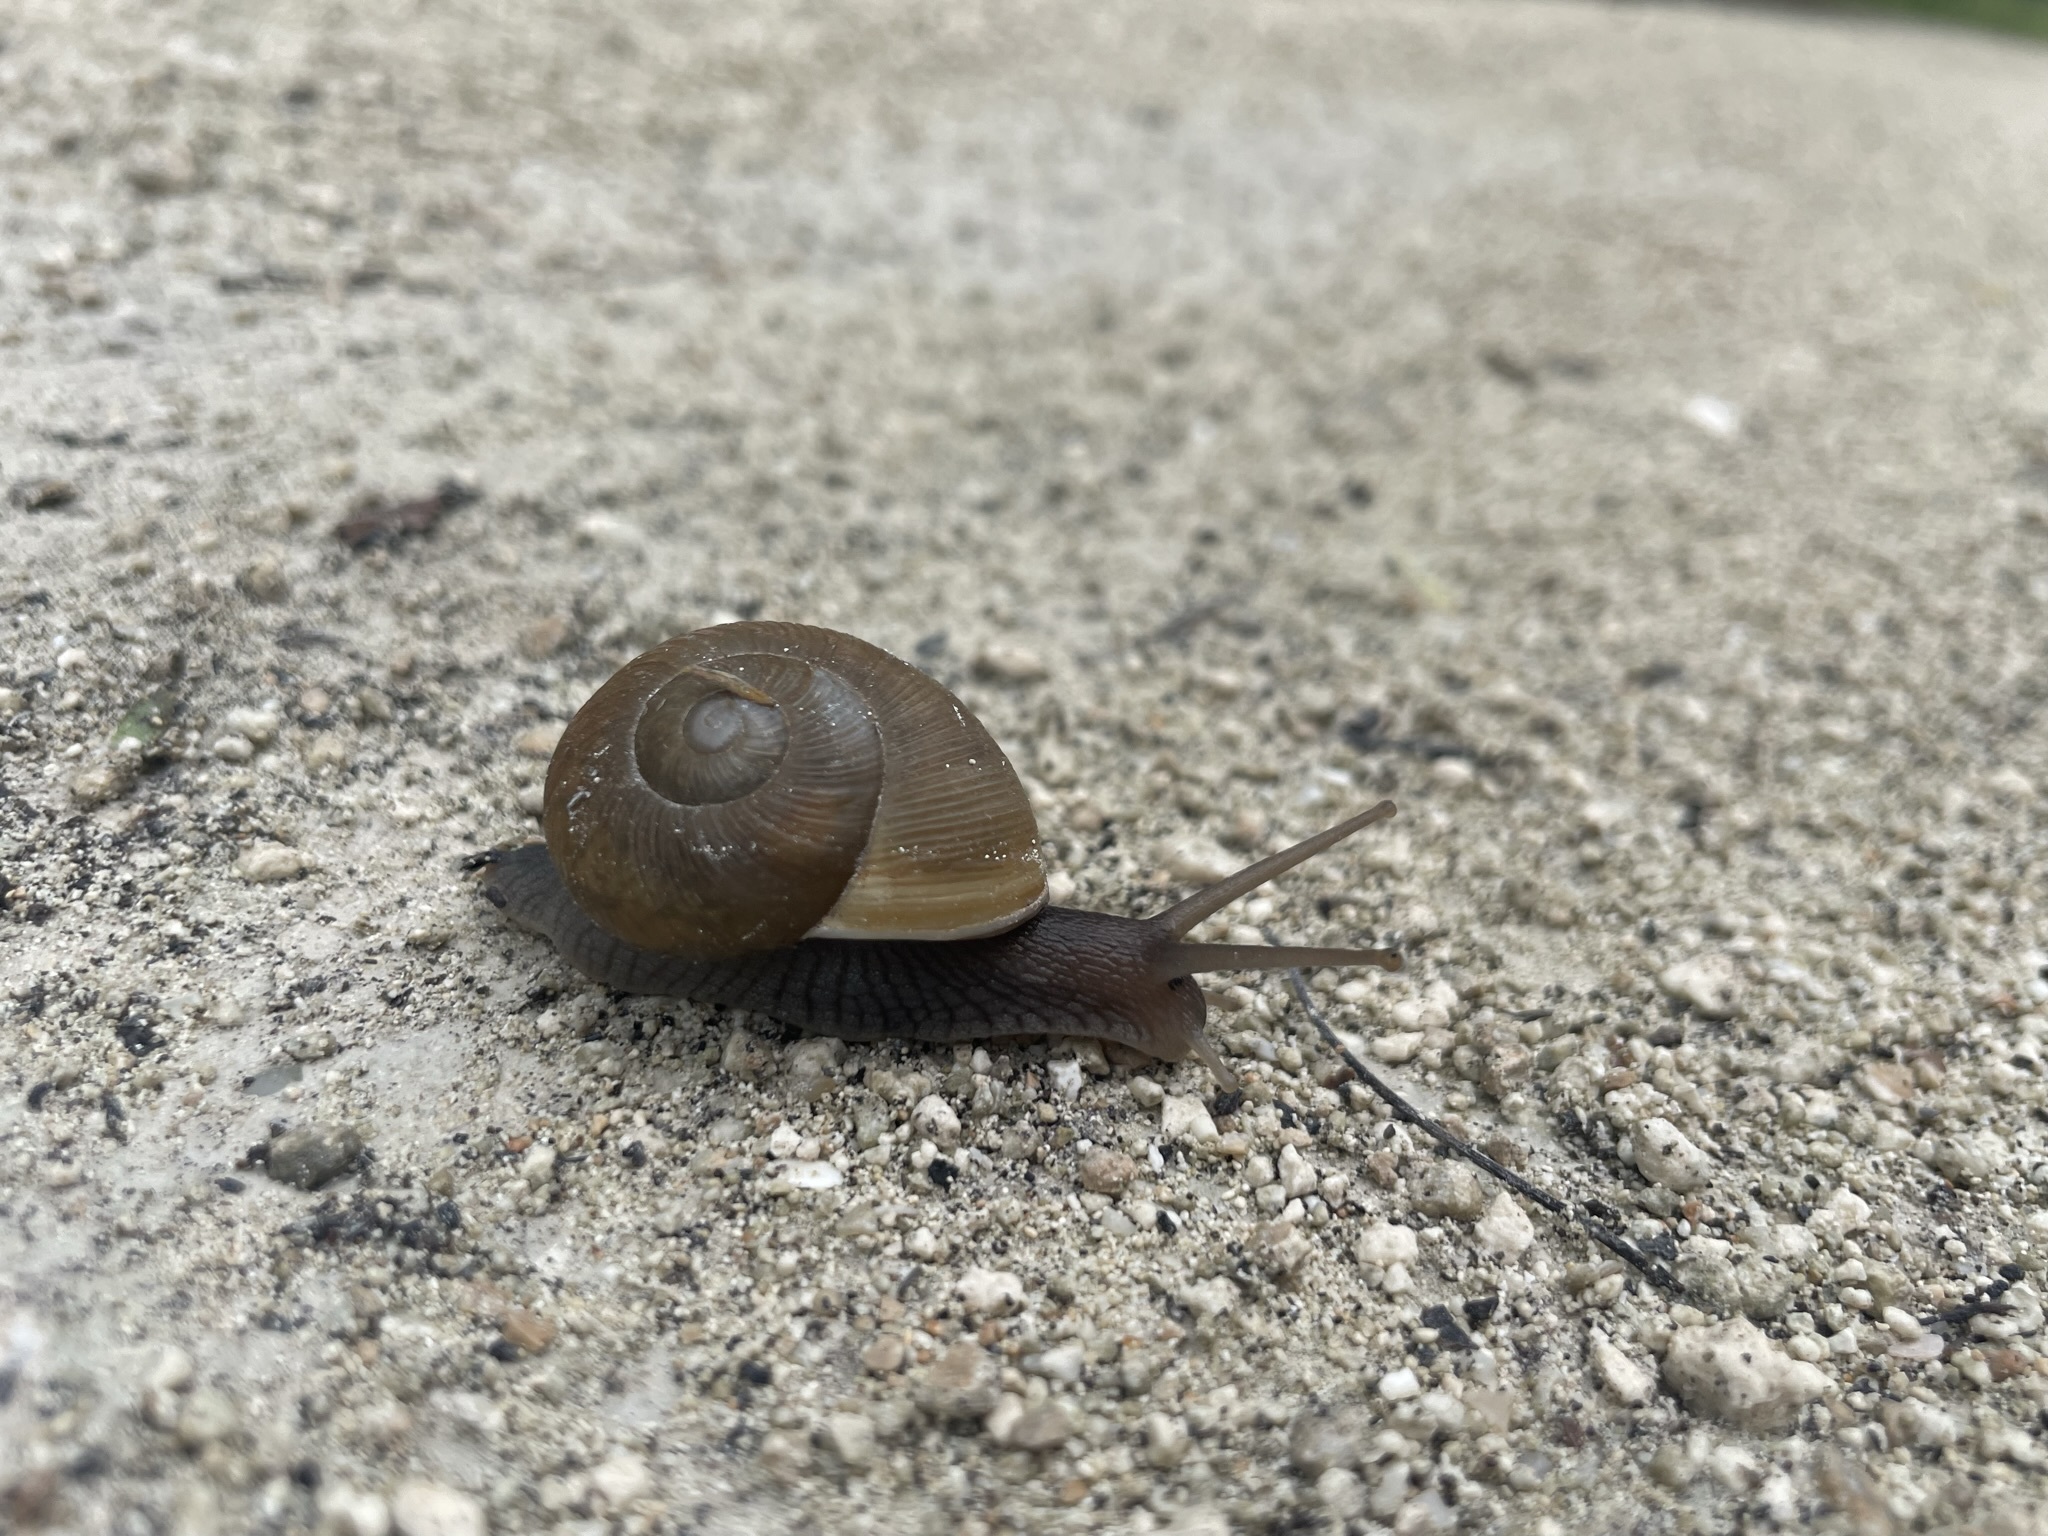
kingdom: Animalia
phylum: Mollusca
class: Gastropoda
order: Stylommatophora
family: Zachrysiidae
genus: Zachrysia
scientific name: Zachrysia provisoria
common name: Garden zachrysia
